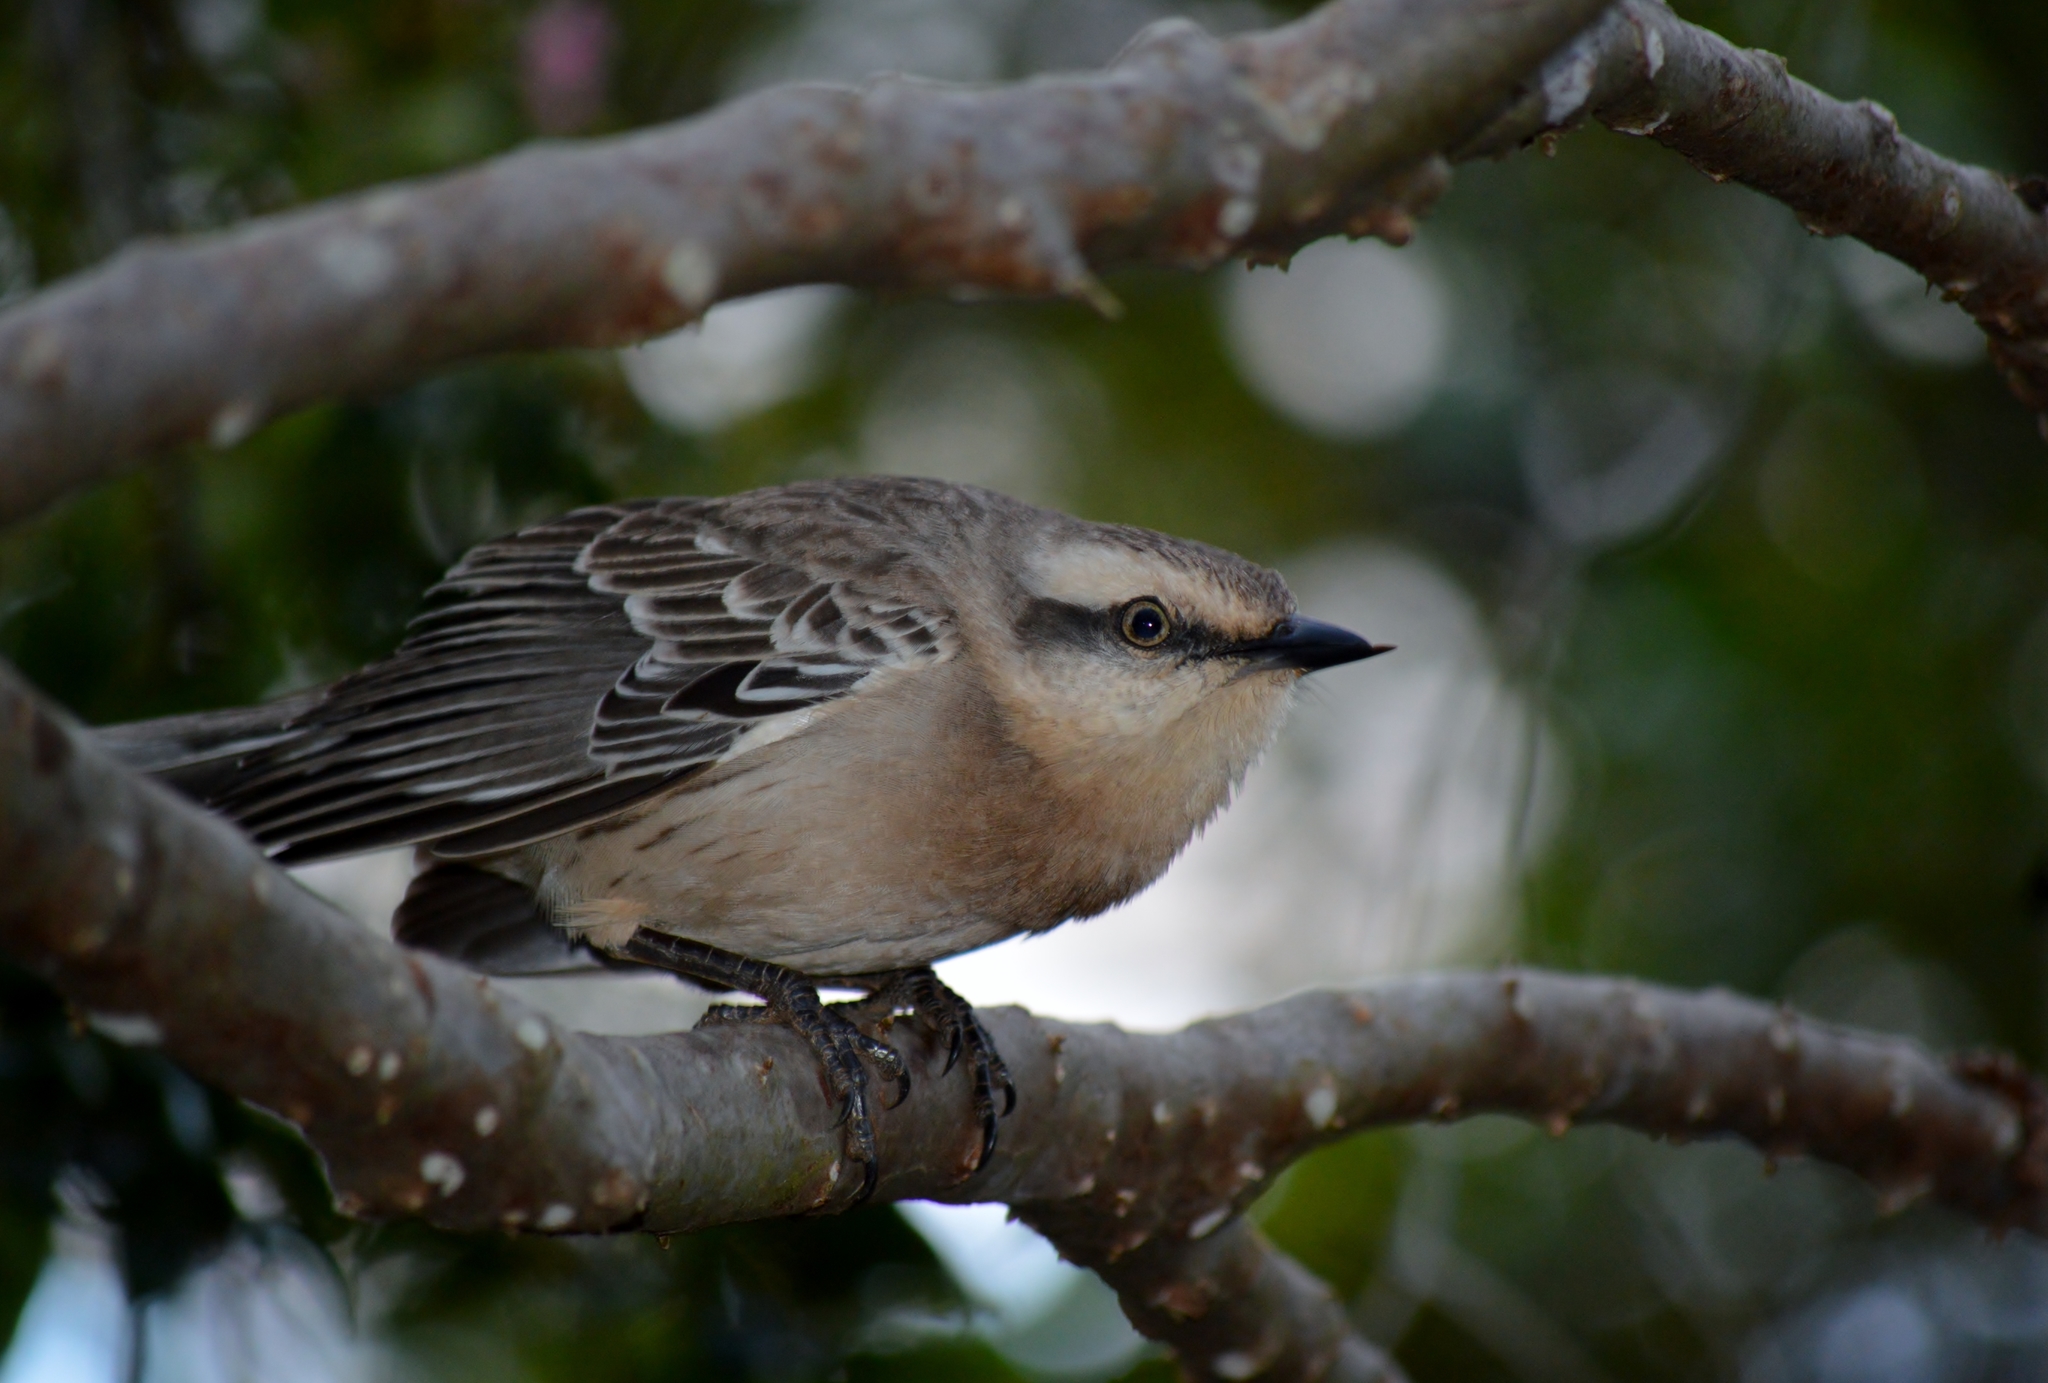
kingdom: Animalia
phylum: Chordata
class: Aves
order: Passeriformes
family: Mimidae
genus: Mimus
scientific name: Mimus saturninus
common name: Chalk-browed mockingbird
